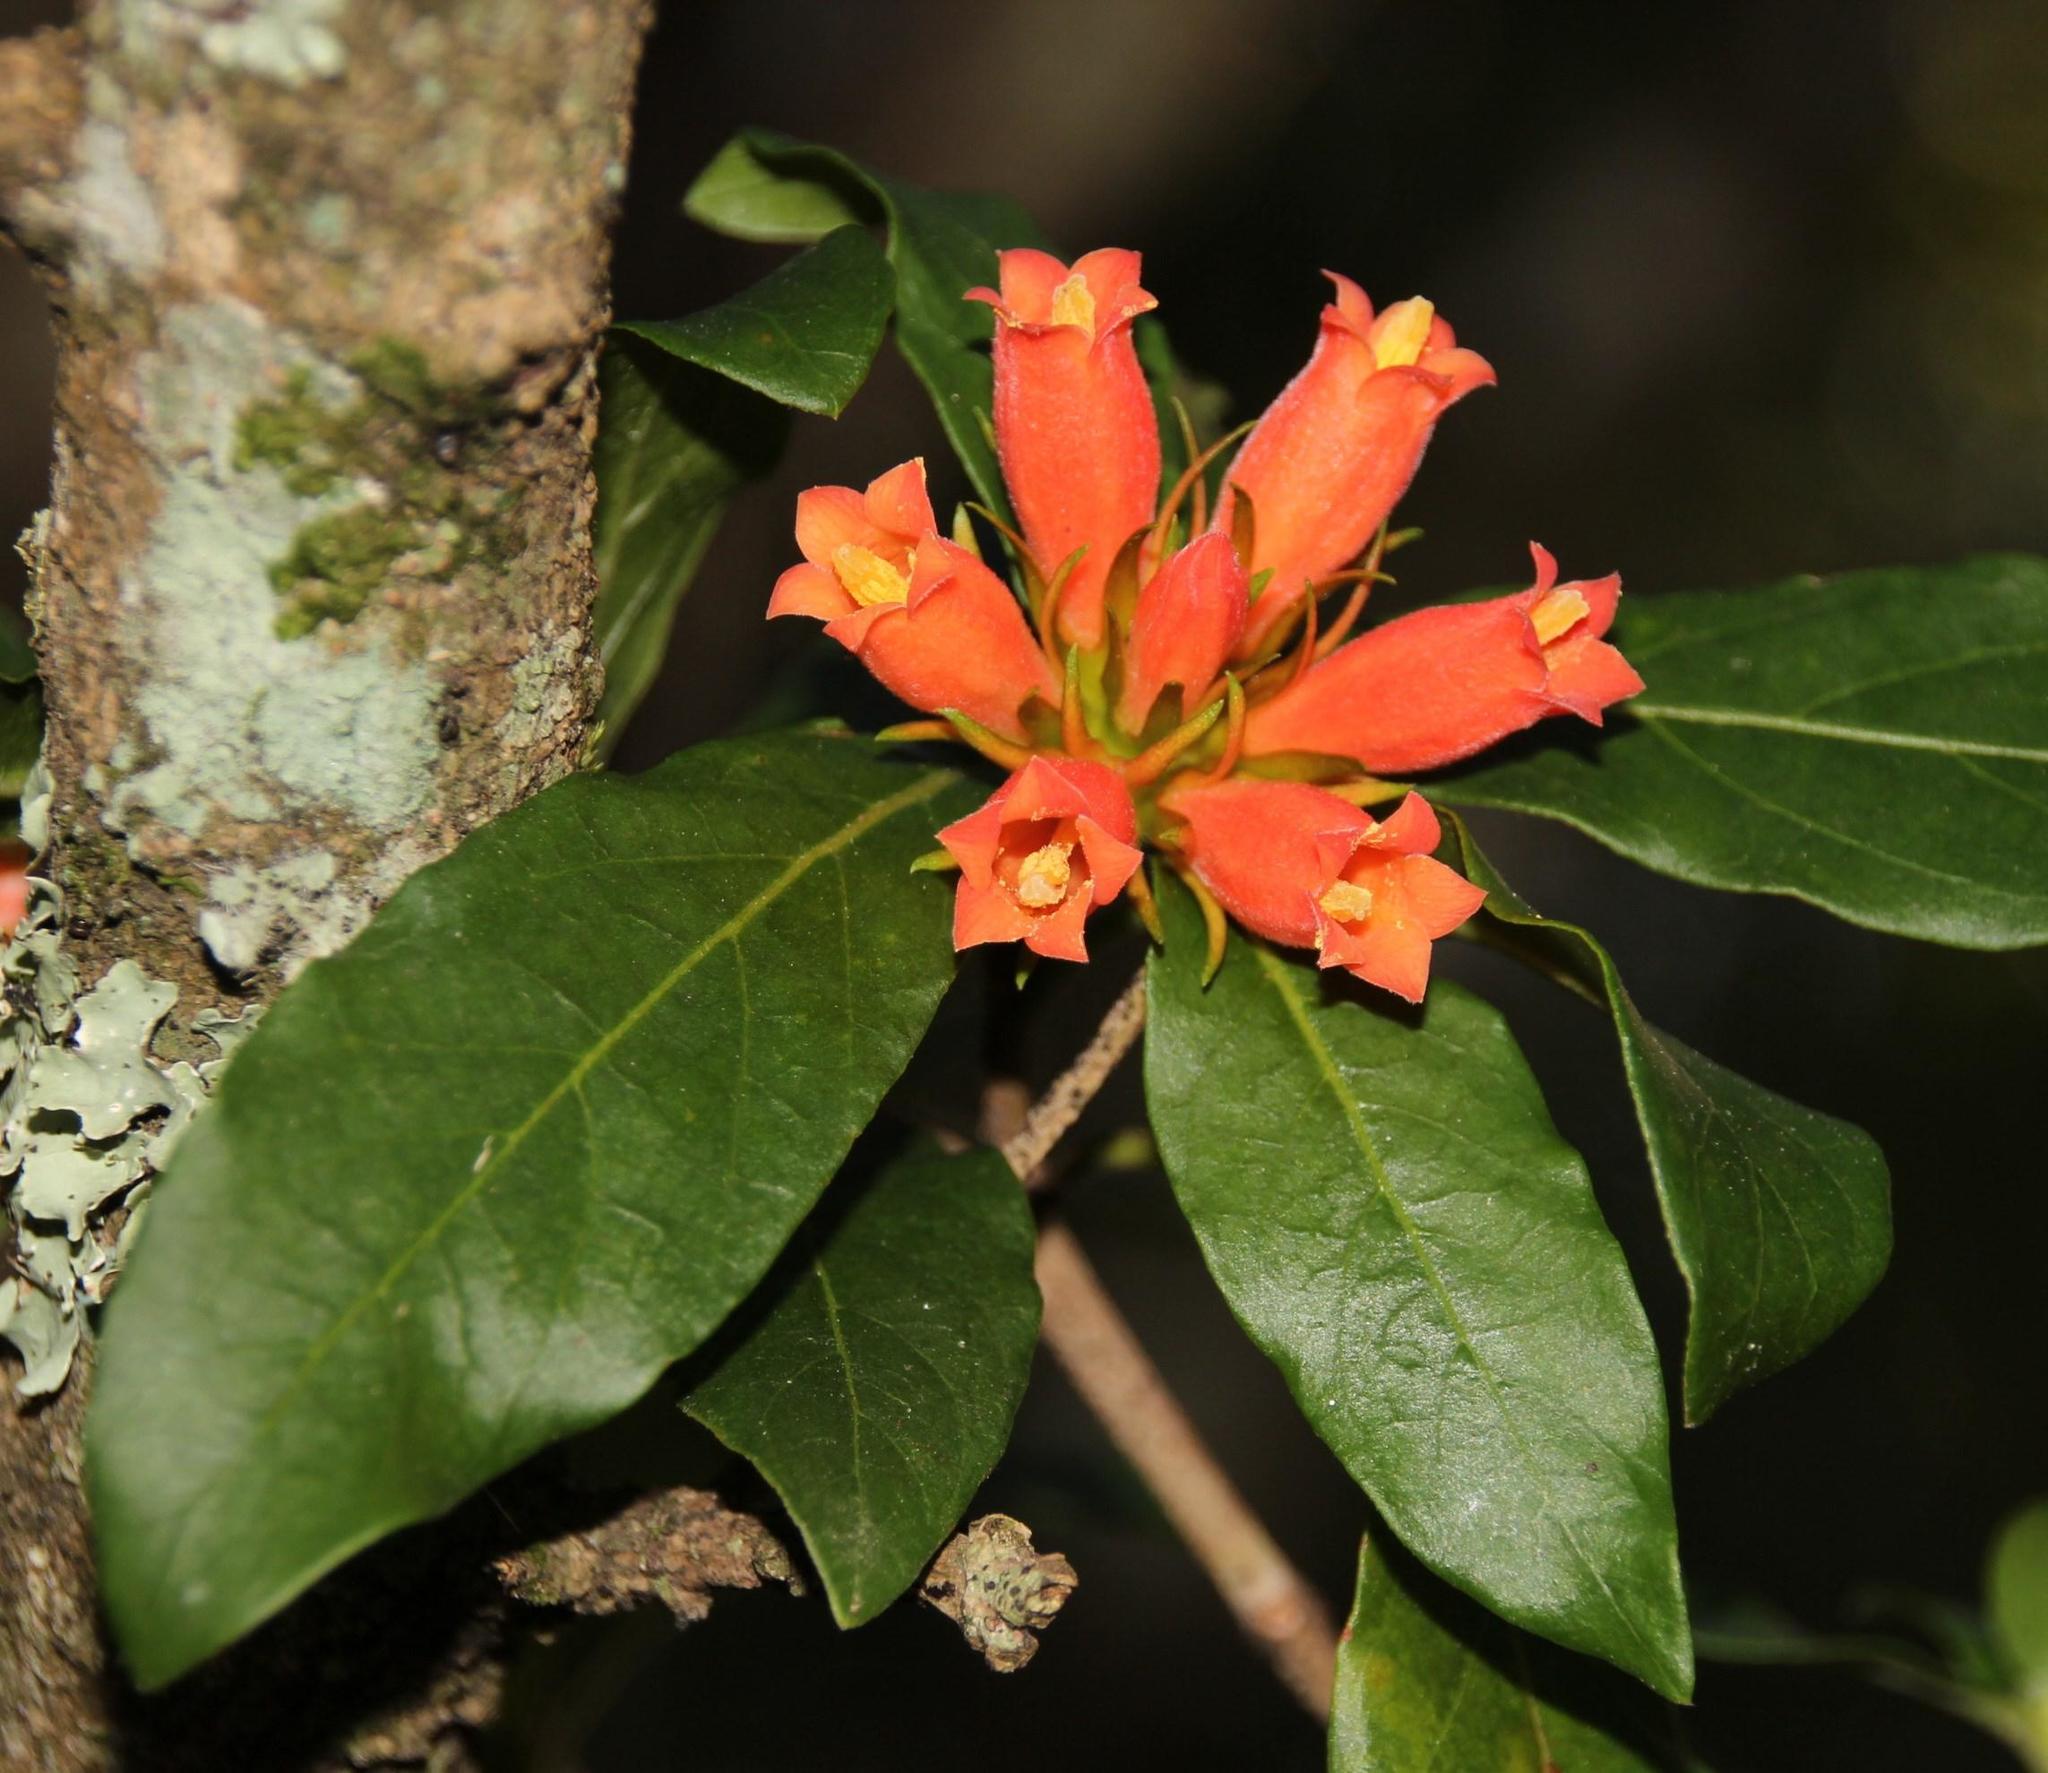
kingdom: Plantae
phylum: Tracheophyta
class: Magnoliopsida
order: Gentianales
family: Rubiaceae
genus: Burchellia
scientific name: Burchellia bubalina
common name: Wild pomegranate
